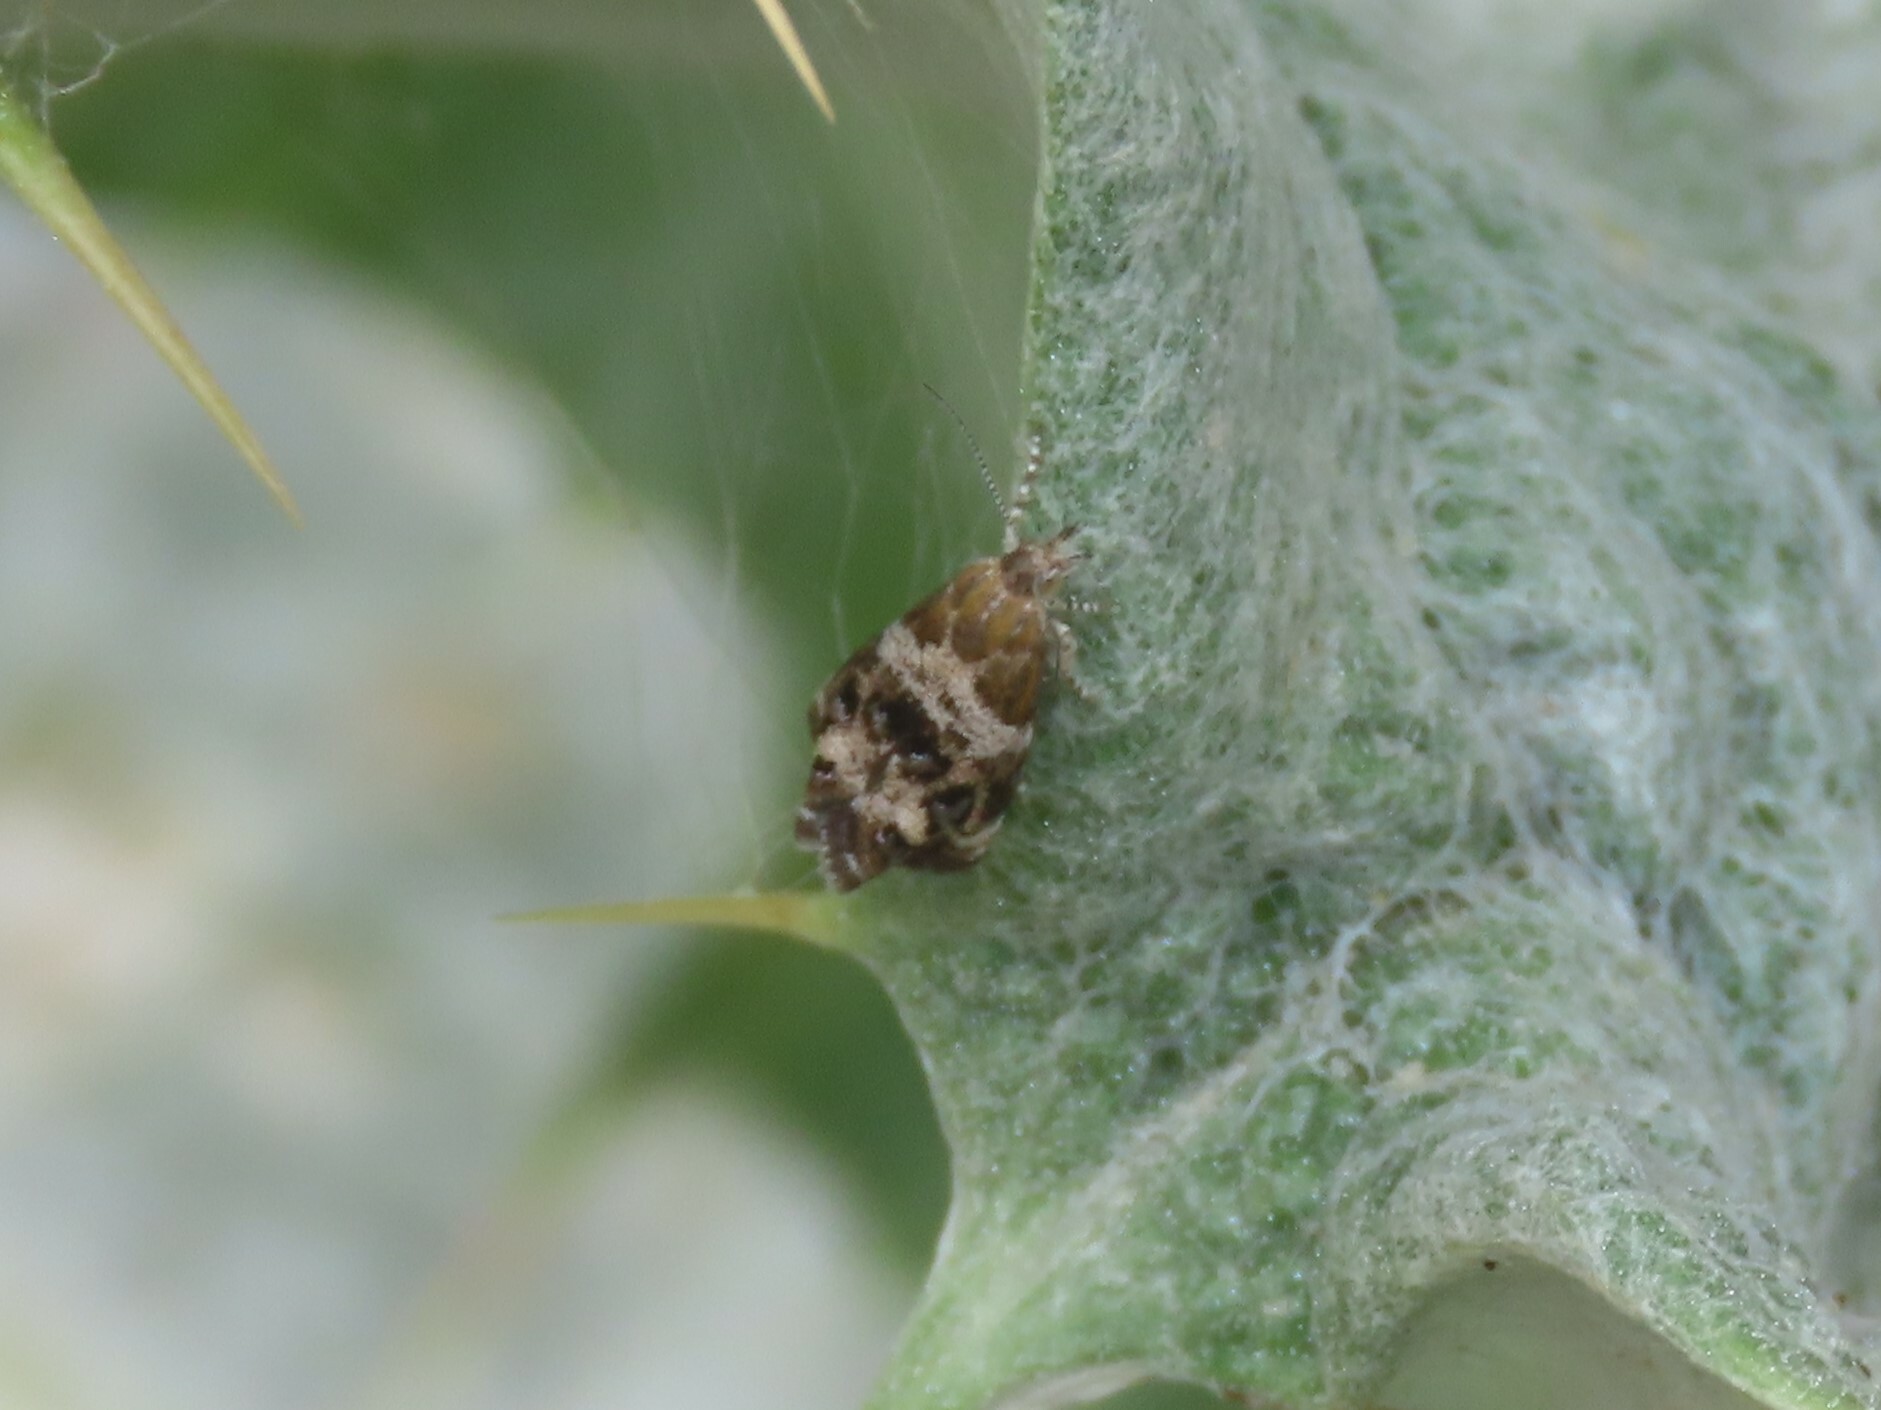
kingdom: Animalia
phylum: Arthropoda
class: Insecta
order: Lepidoptera
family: Choreutidae
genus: Tebenna
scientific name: Tebenna micalis
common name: Vagrant twitcher
